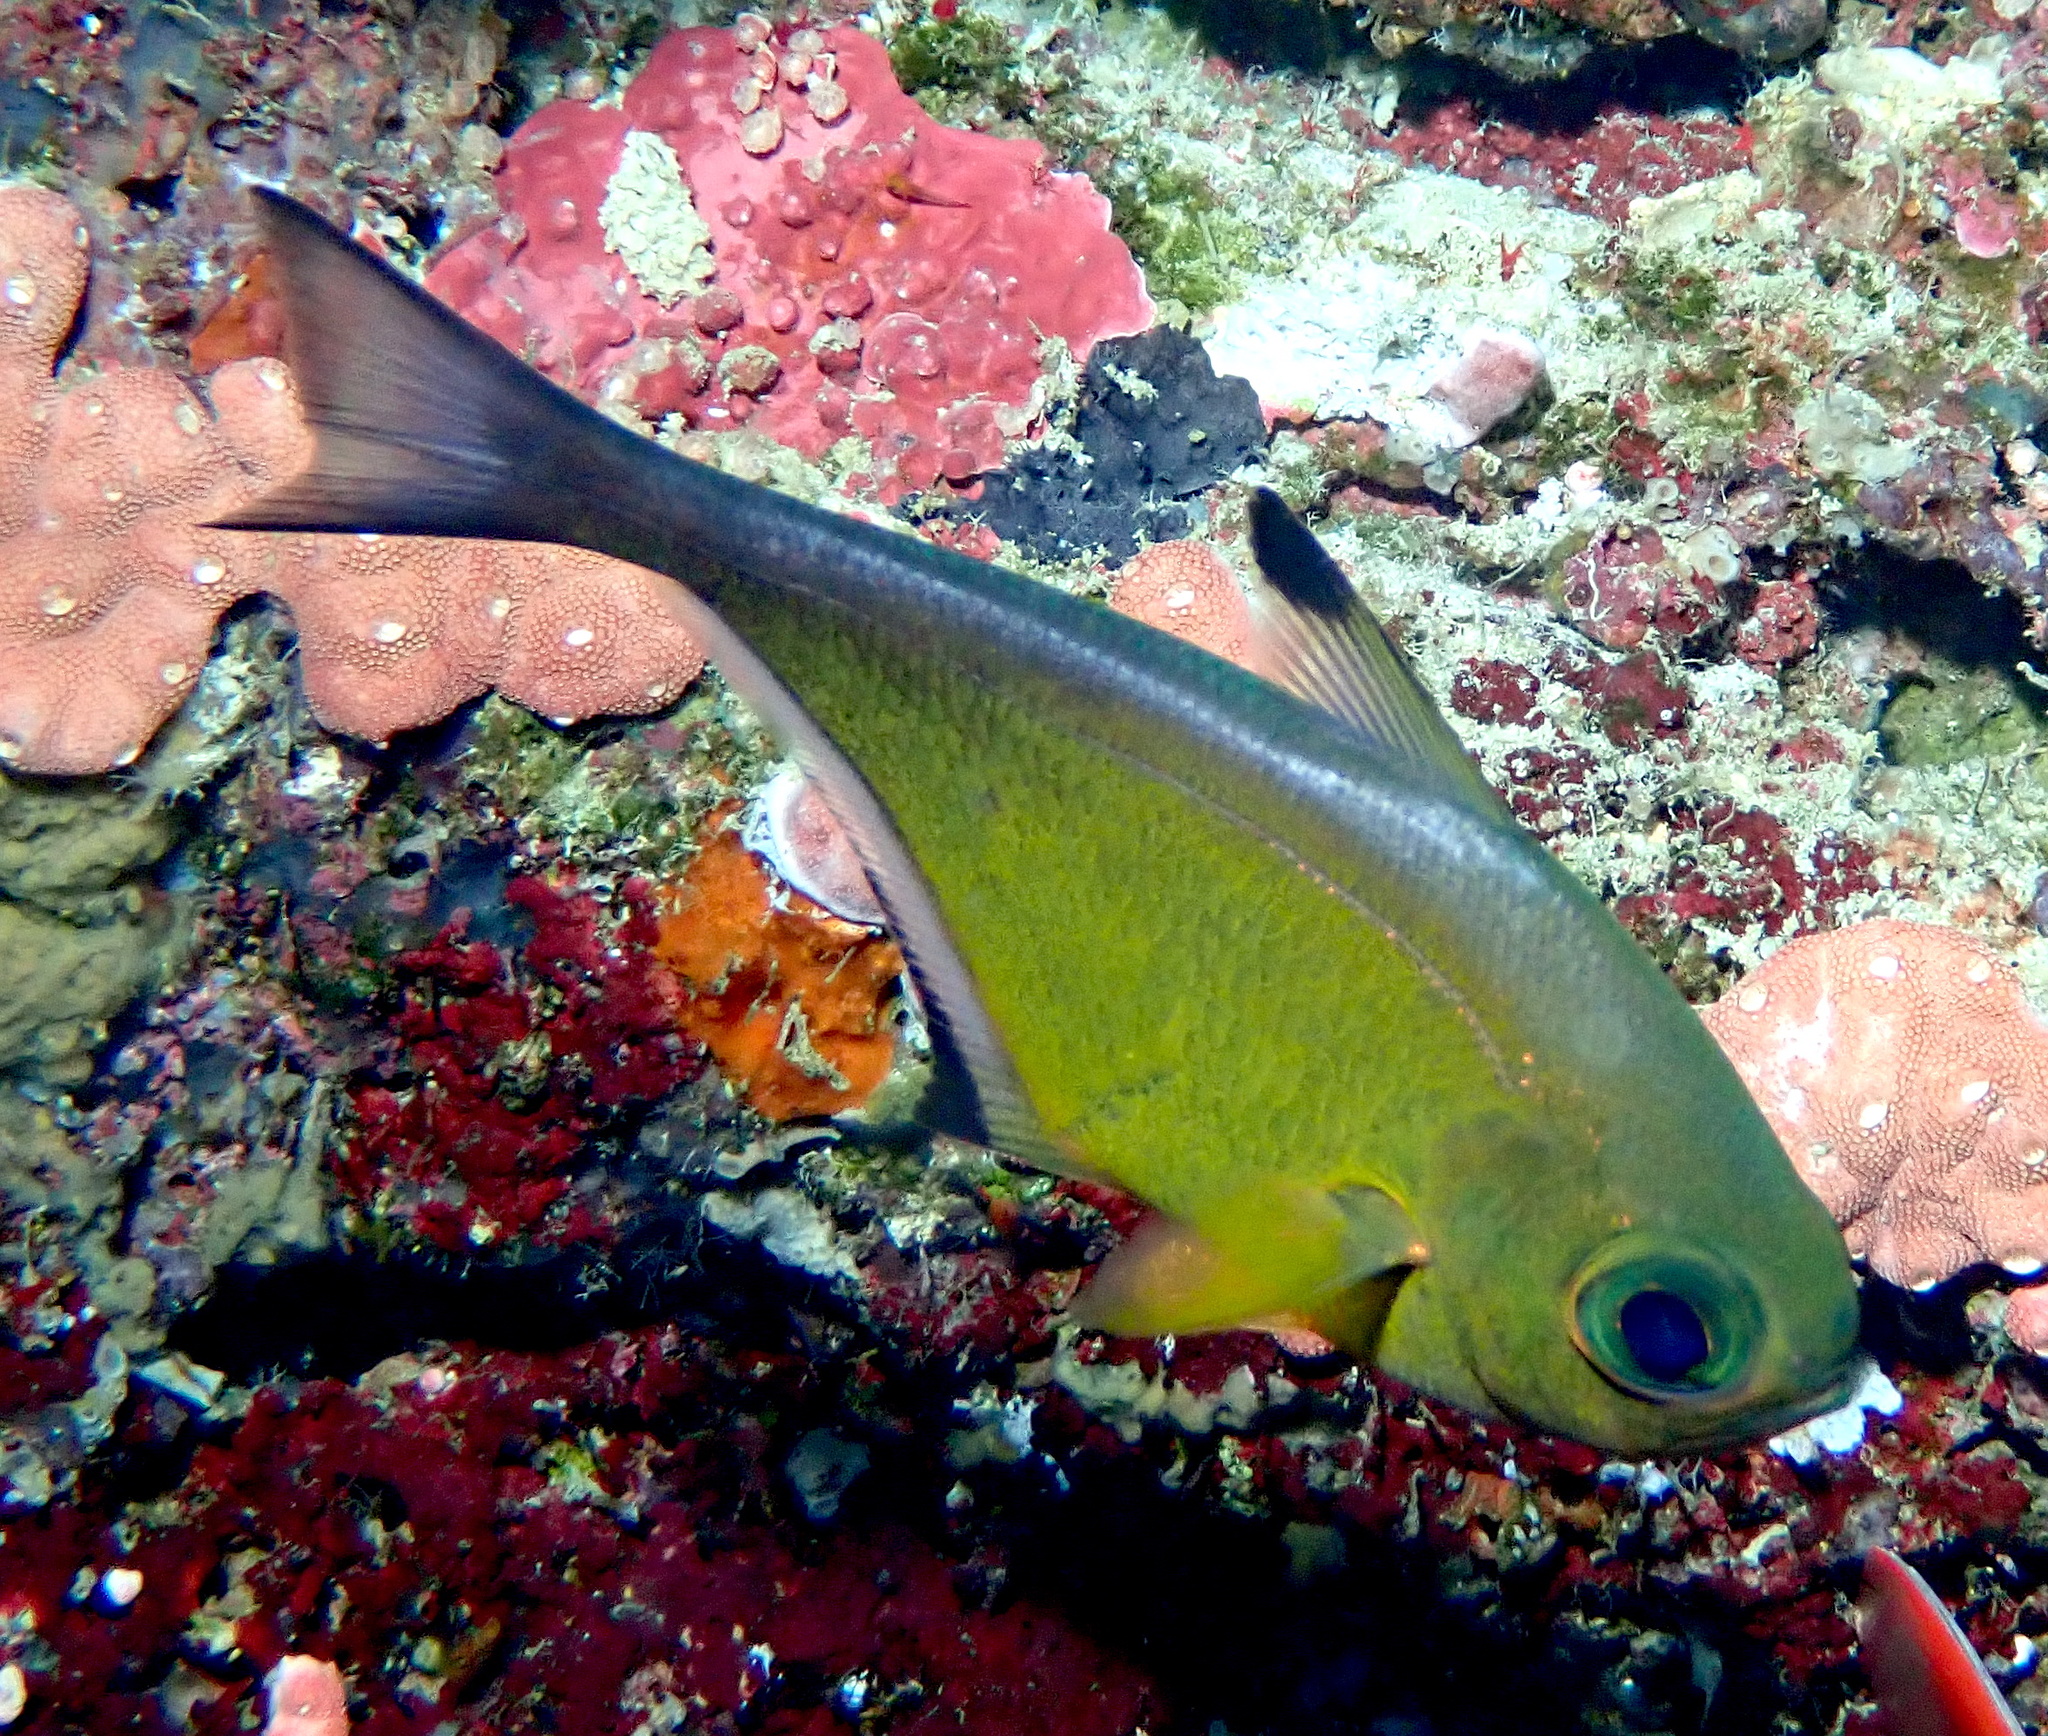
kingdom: Animalia
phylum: Chordata
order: Perciformes
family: Pempheridae
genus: Pempheris
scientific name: Pempheris vanicolensis
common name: Vanikoro sweeper
